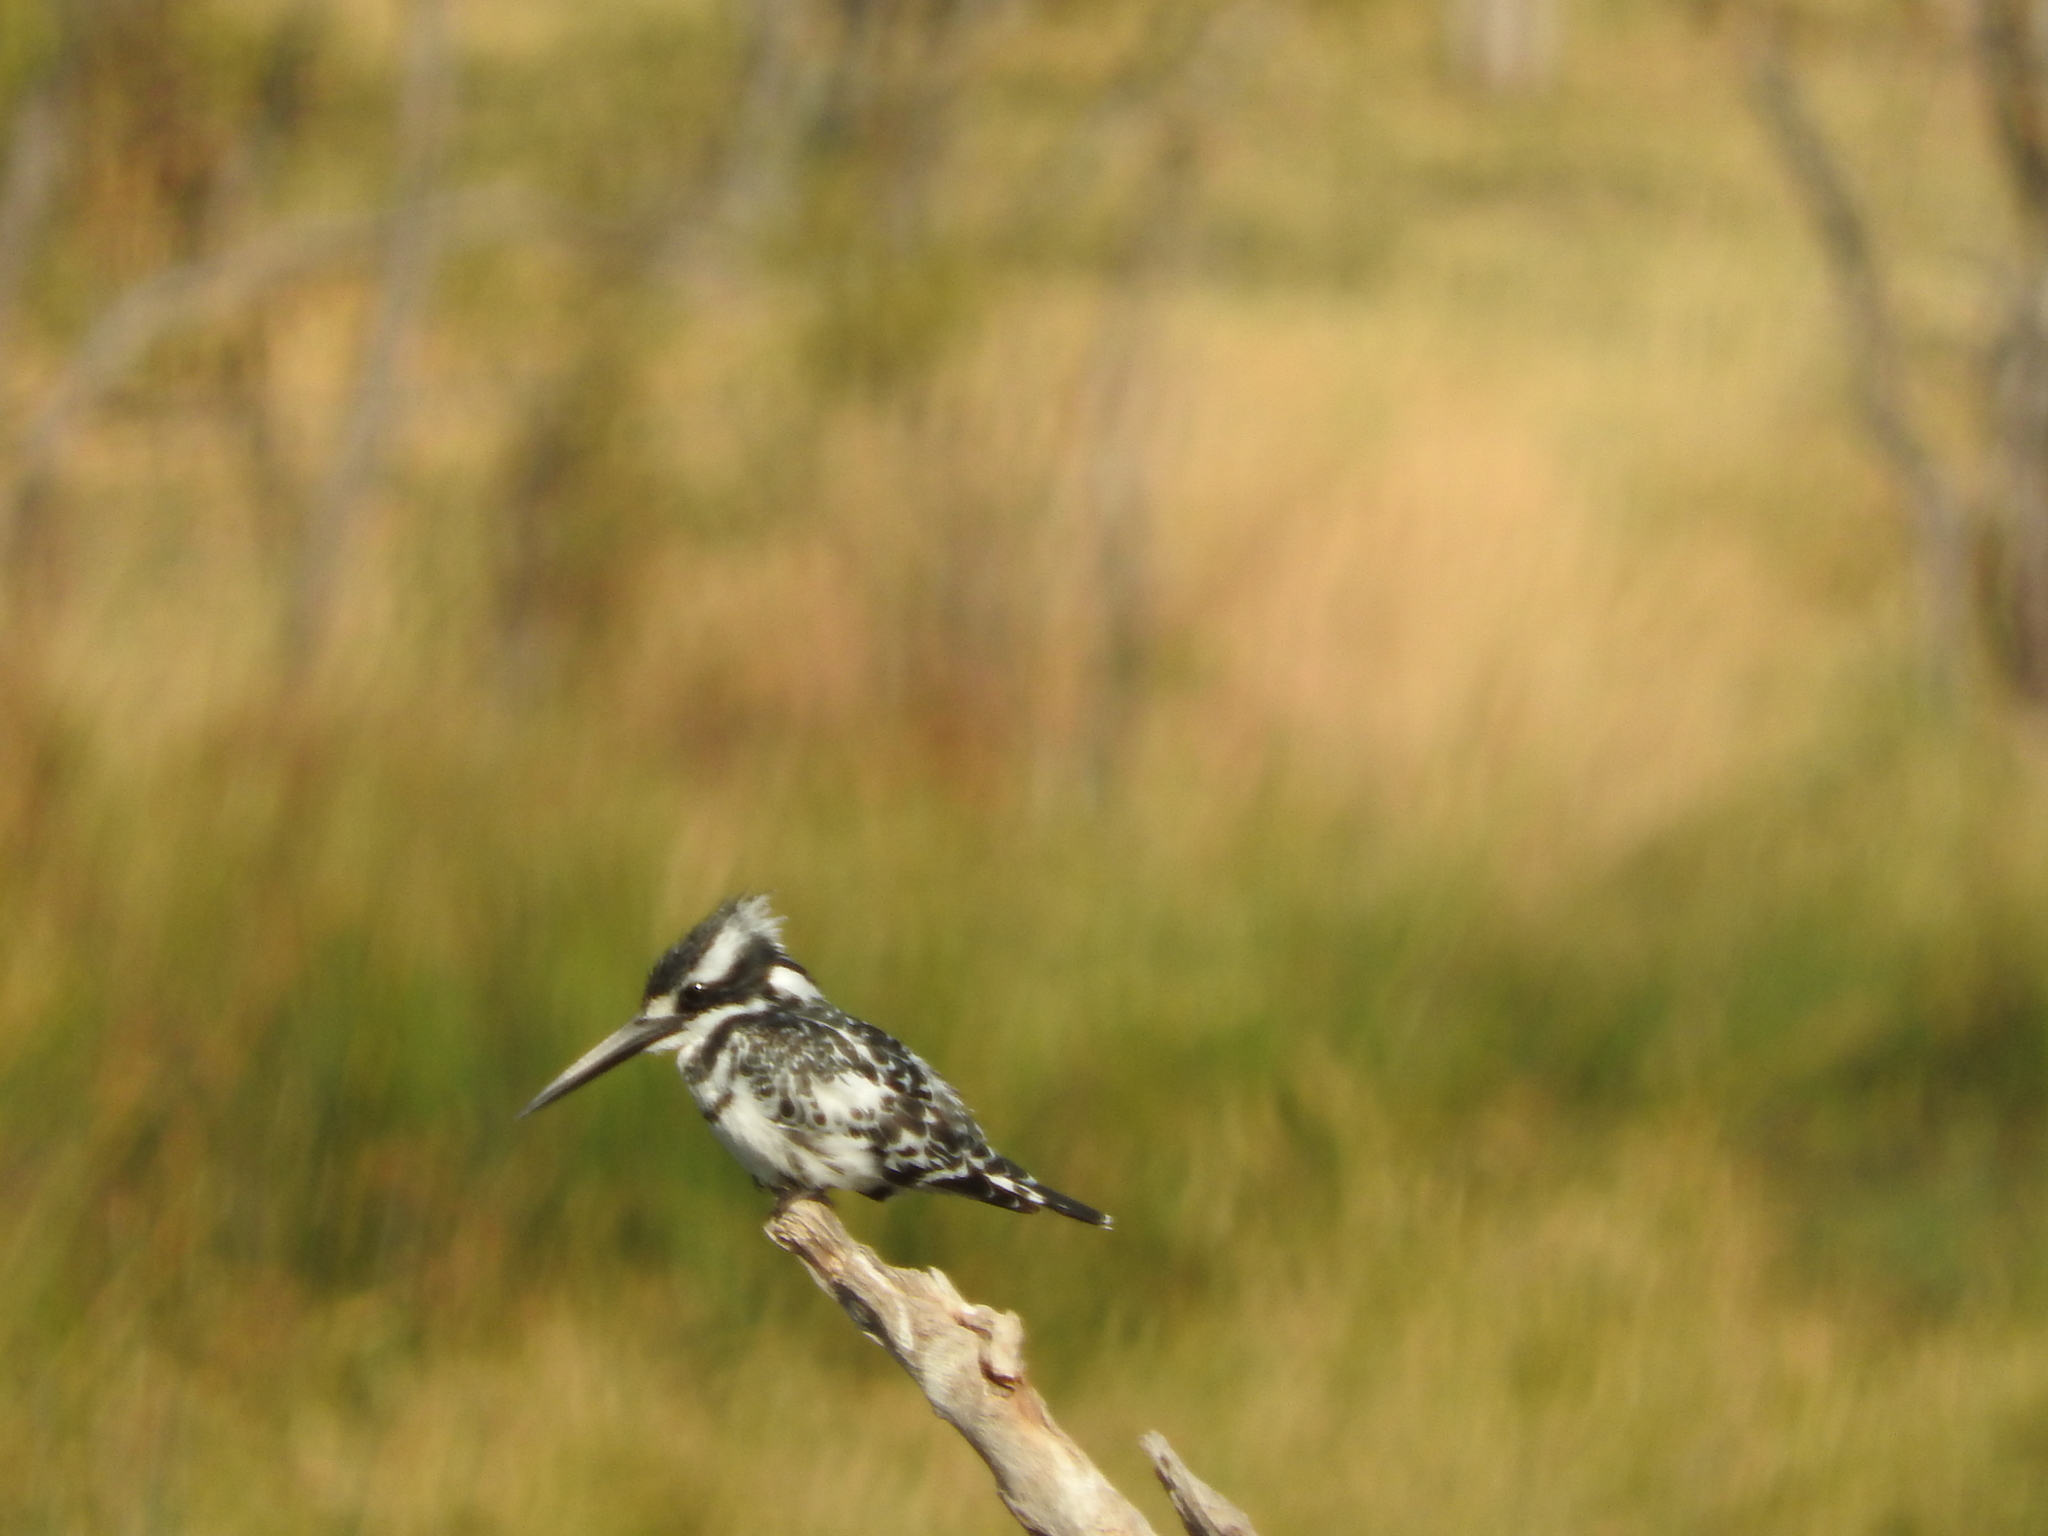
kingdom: Animalia
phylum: Chordata
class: Aves
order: Coraciiformes
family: Alcedinidae
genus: Ceryle
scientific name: Ceryle rudis
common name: Pied kingfisher
